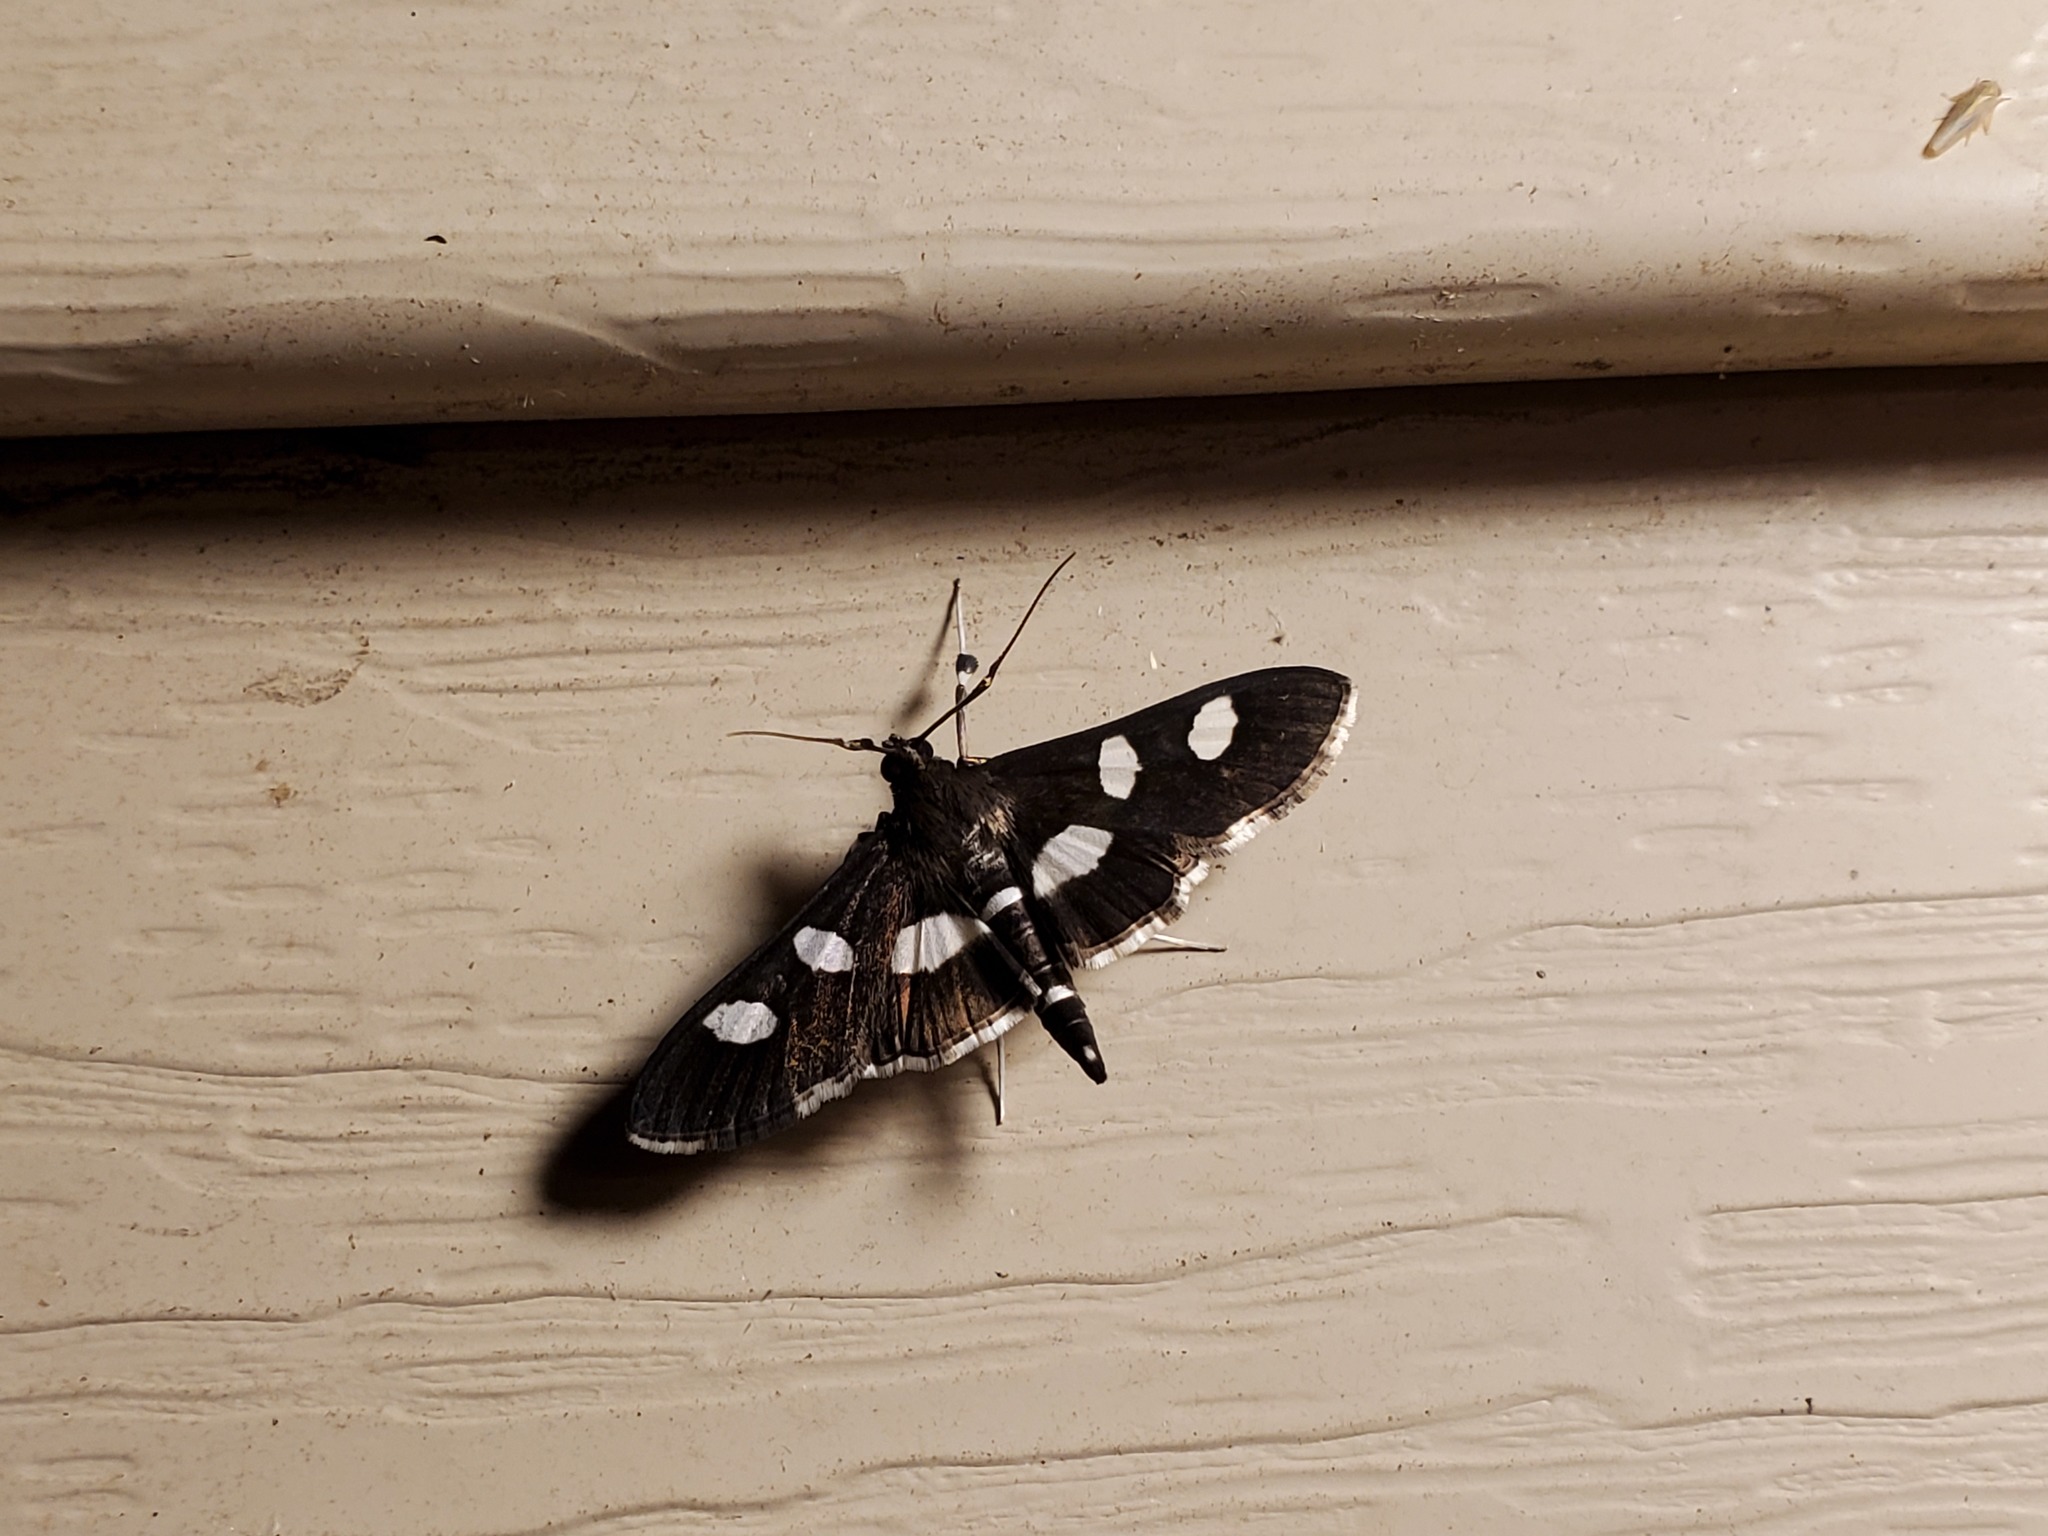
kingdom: Animalia
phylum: Arthropoda
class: Insecta
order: Lepidoptera
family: Crambidae
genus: Desmia
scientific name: Desmia
